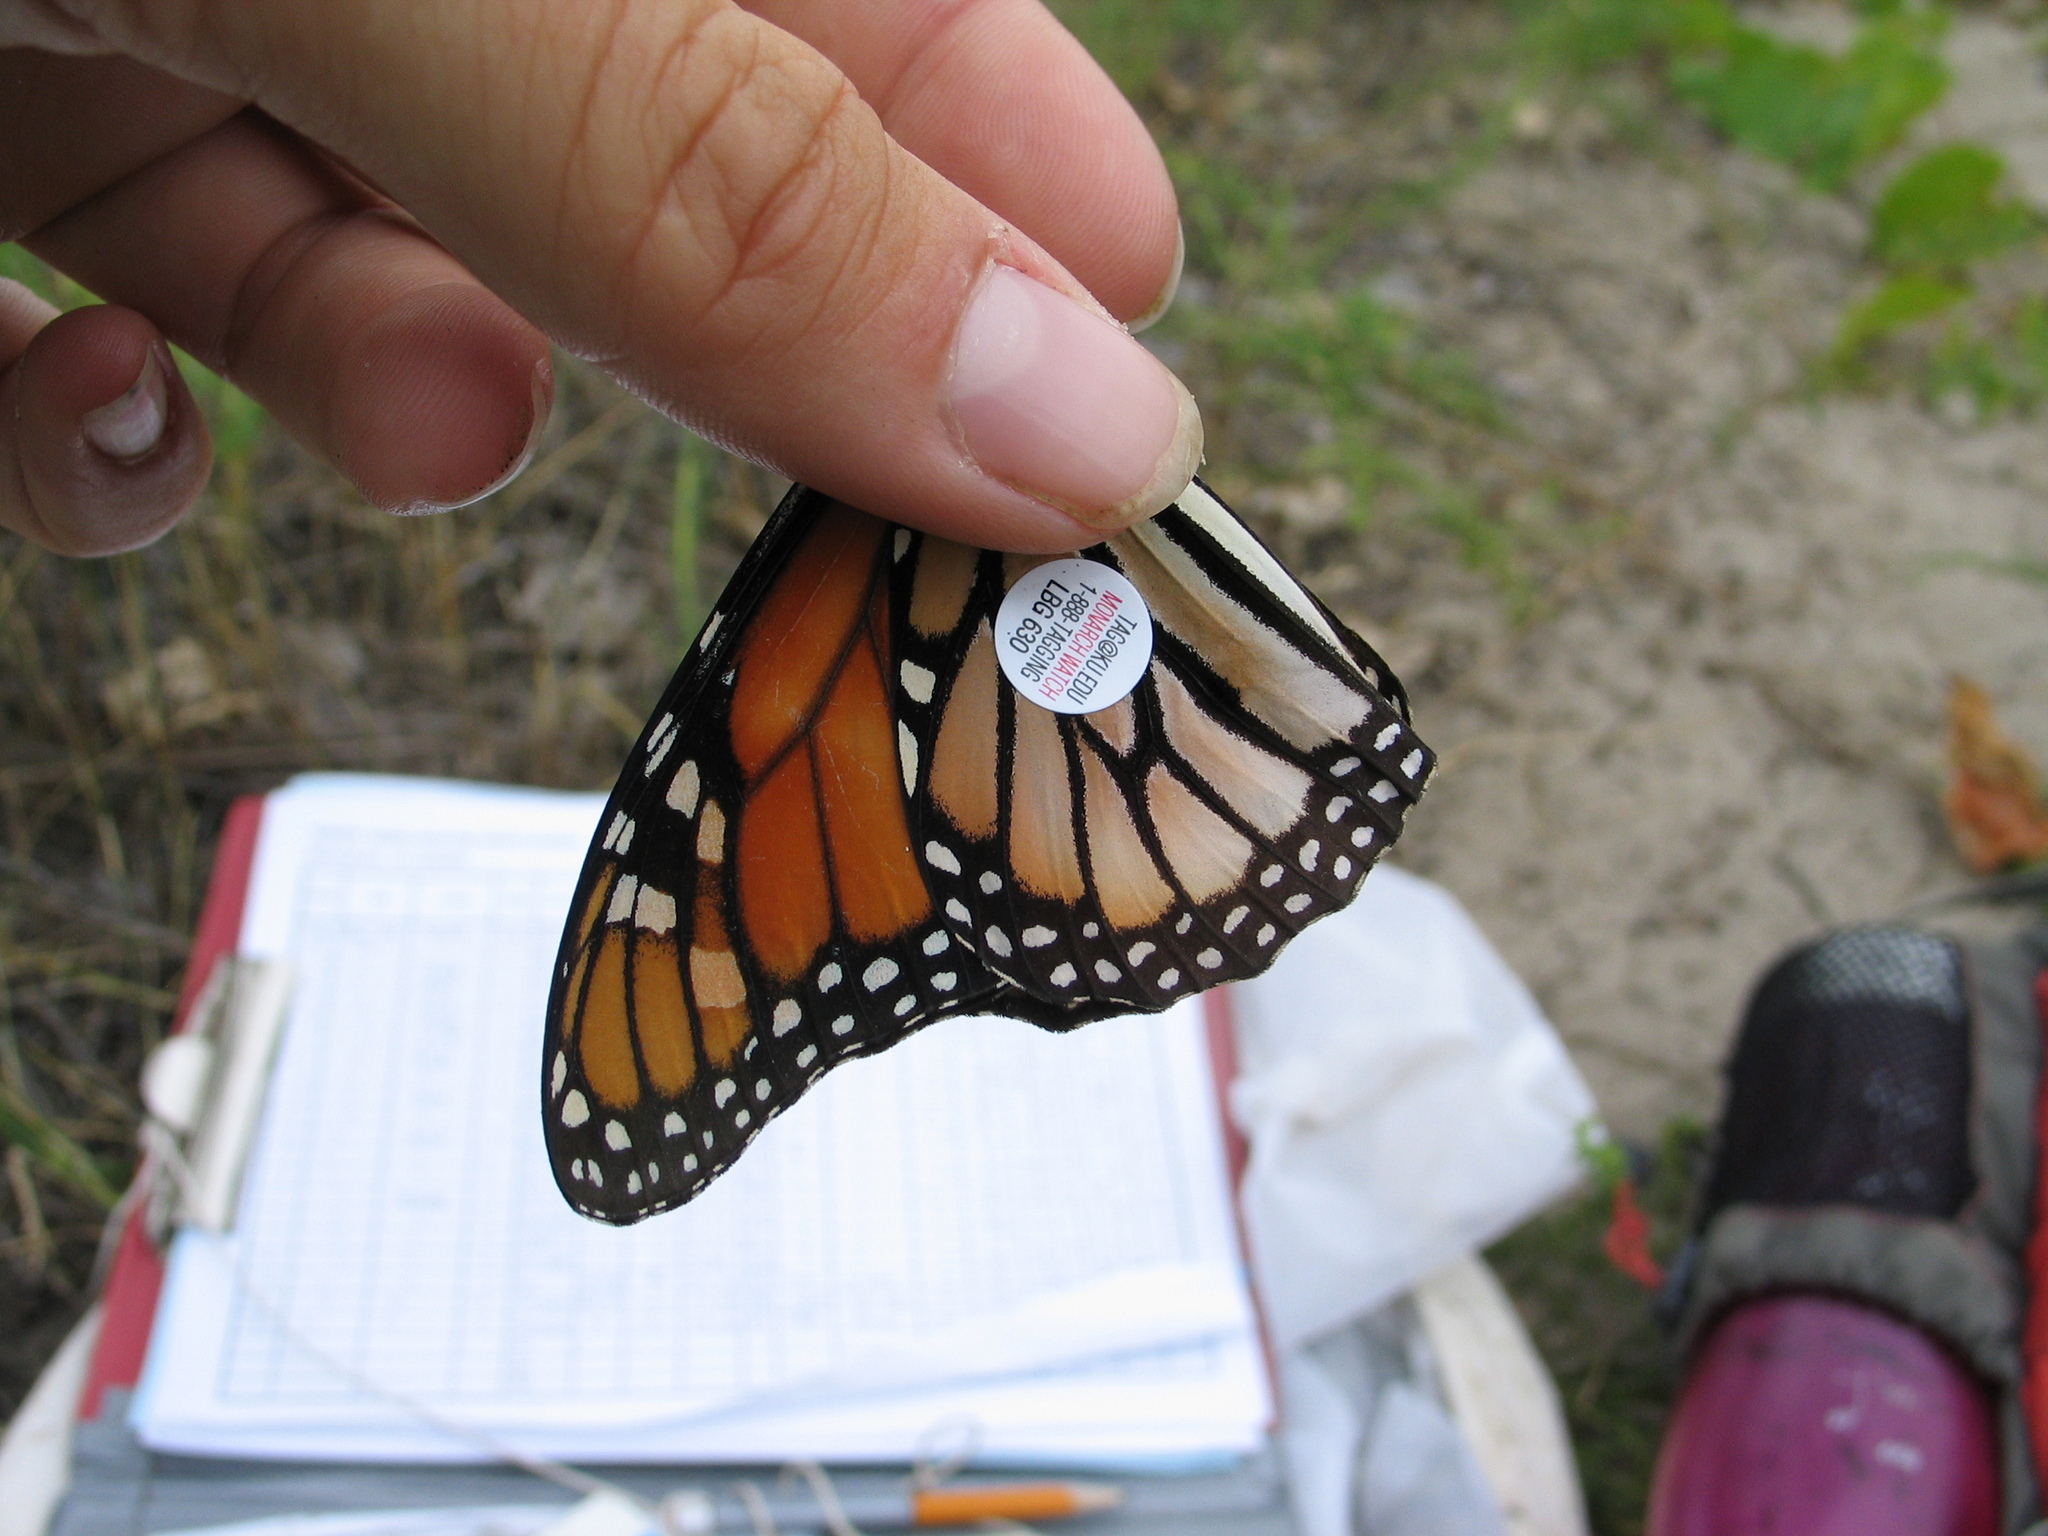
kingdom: Animalia
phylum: Arthropoda
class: Insecta
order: Lepidoptera
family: Nymphalidae
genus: Danaus
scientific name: Danaus plexippus
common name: Monarch
